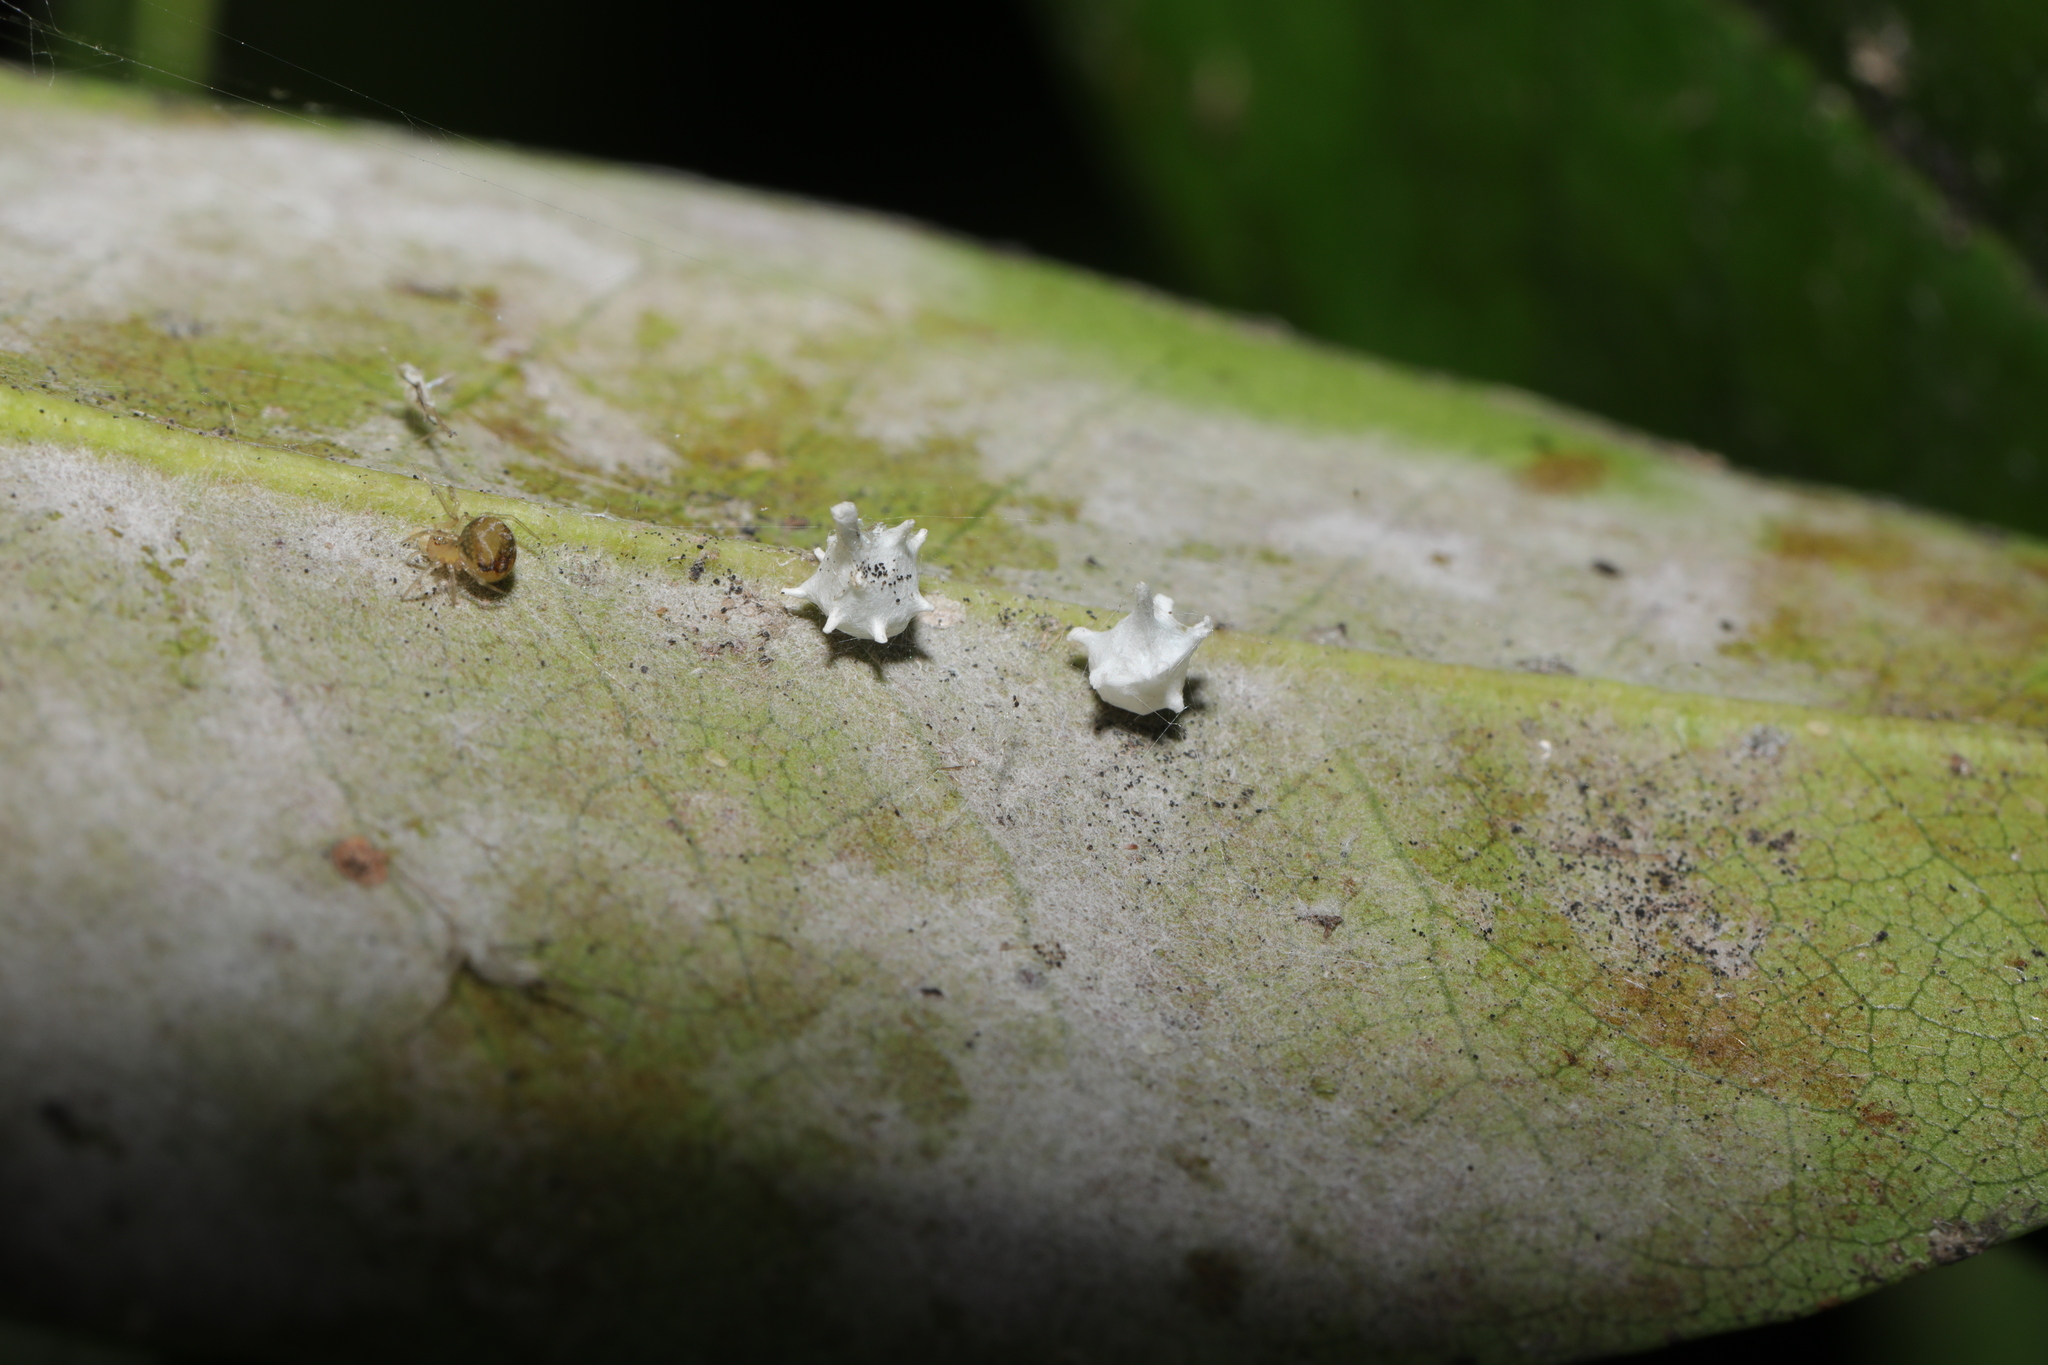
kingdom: Animalia
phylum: Arthropoda
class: Arachnida
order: Araneae
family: Theridiidae
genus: Paidiscura
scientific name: Paidiscura pallens
